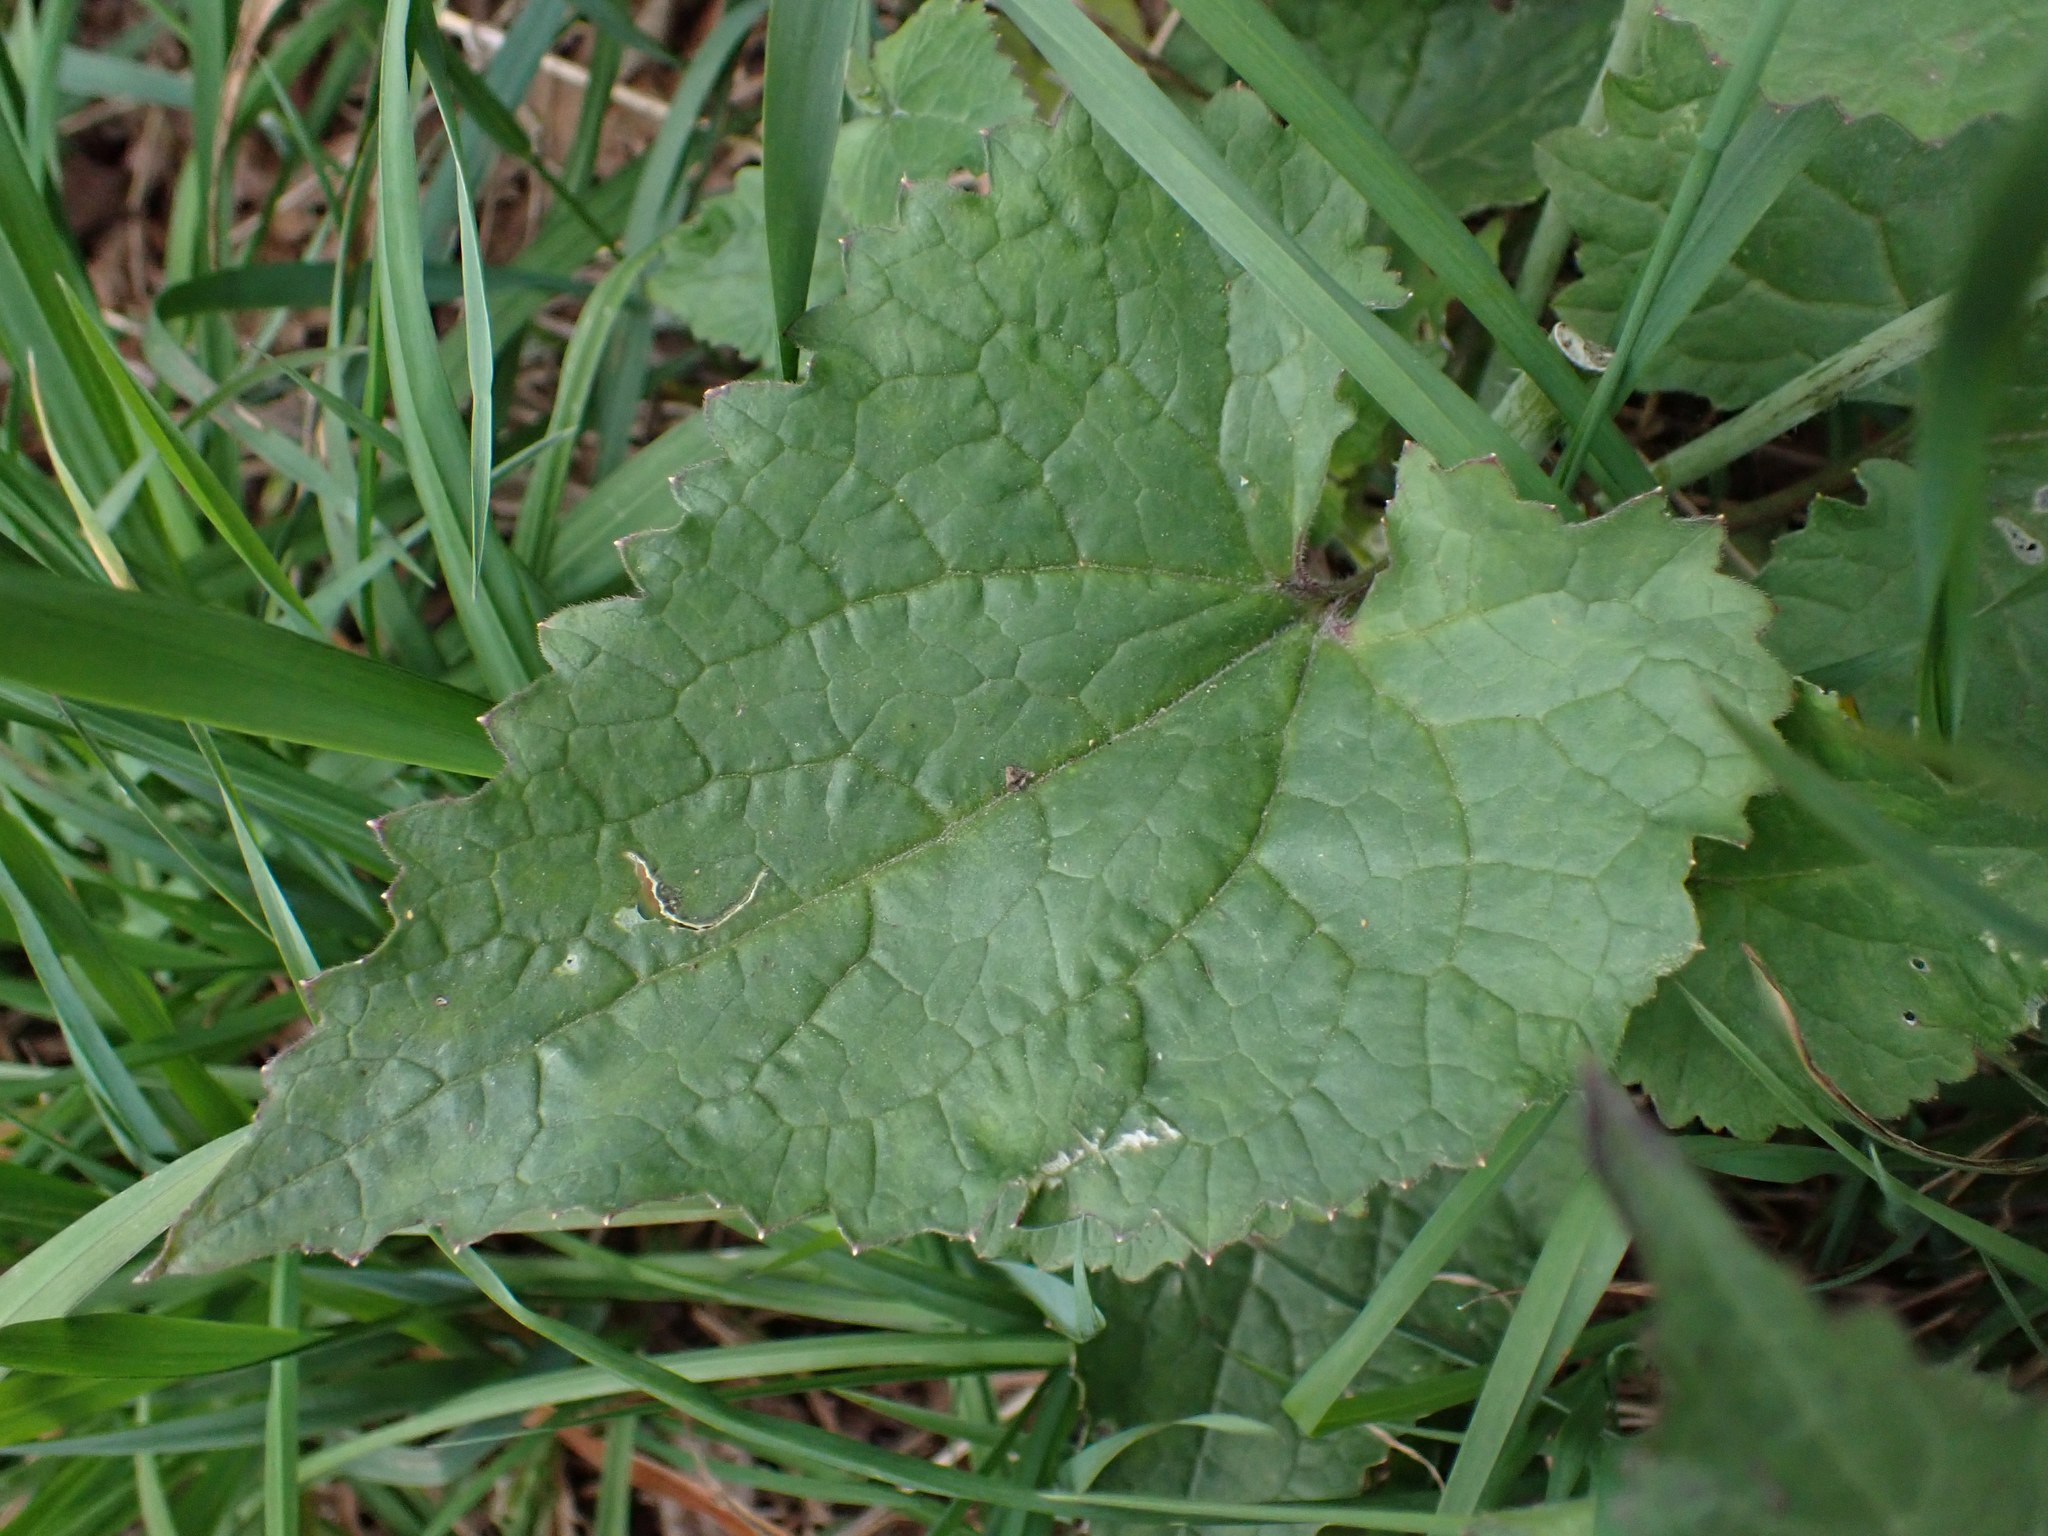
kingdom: Plantae
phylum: Tracheophyta
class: Magnoliopsida
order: Brassicales
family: Brassicaceae
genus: Lunaria
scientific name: Lunaria annua
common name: Honesty
